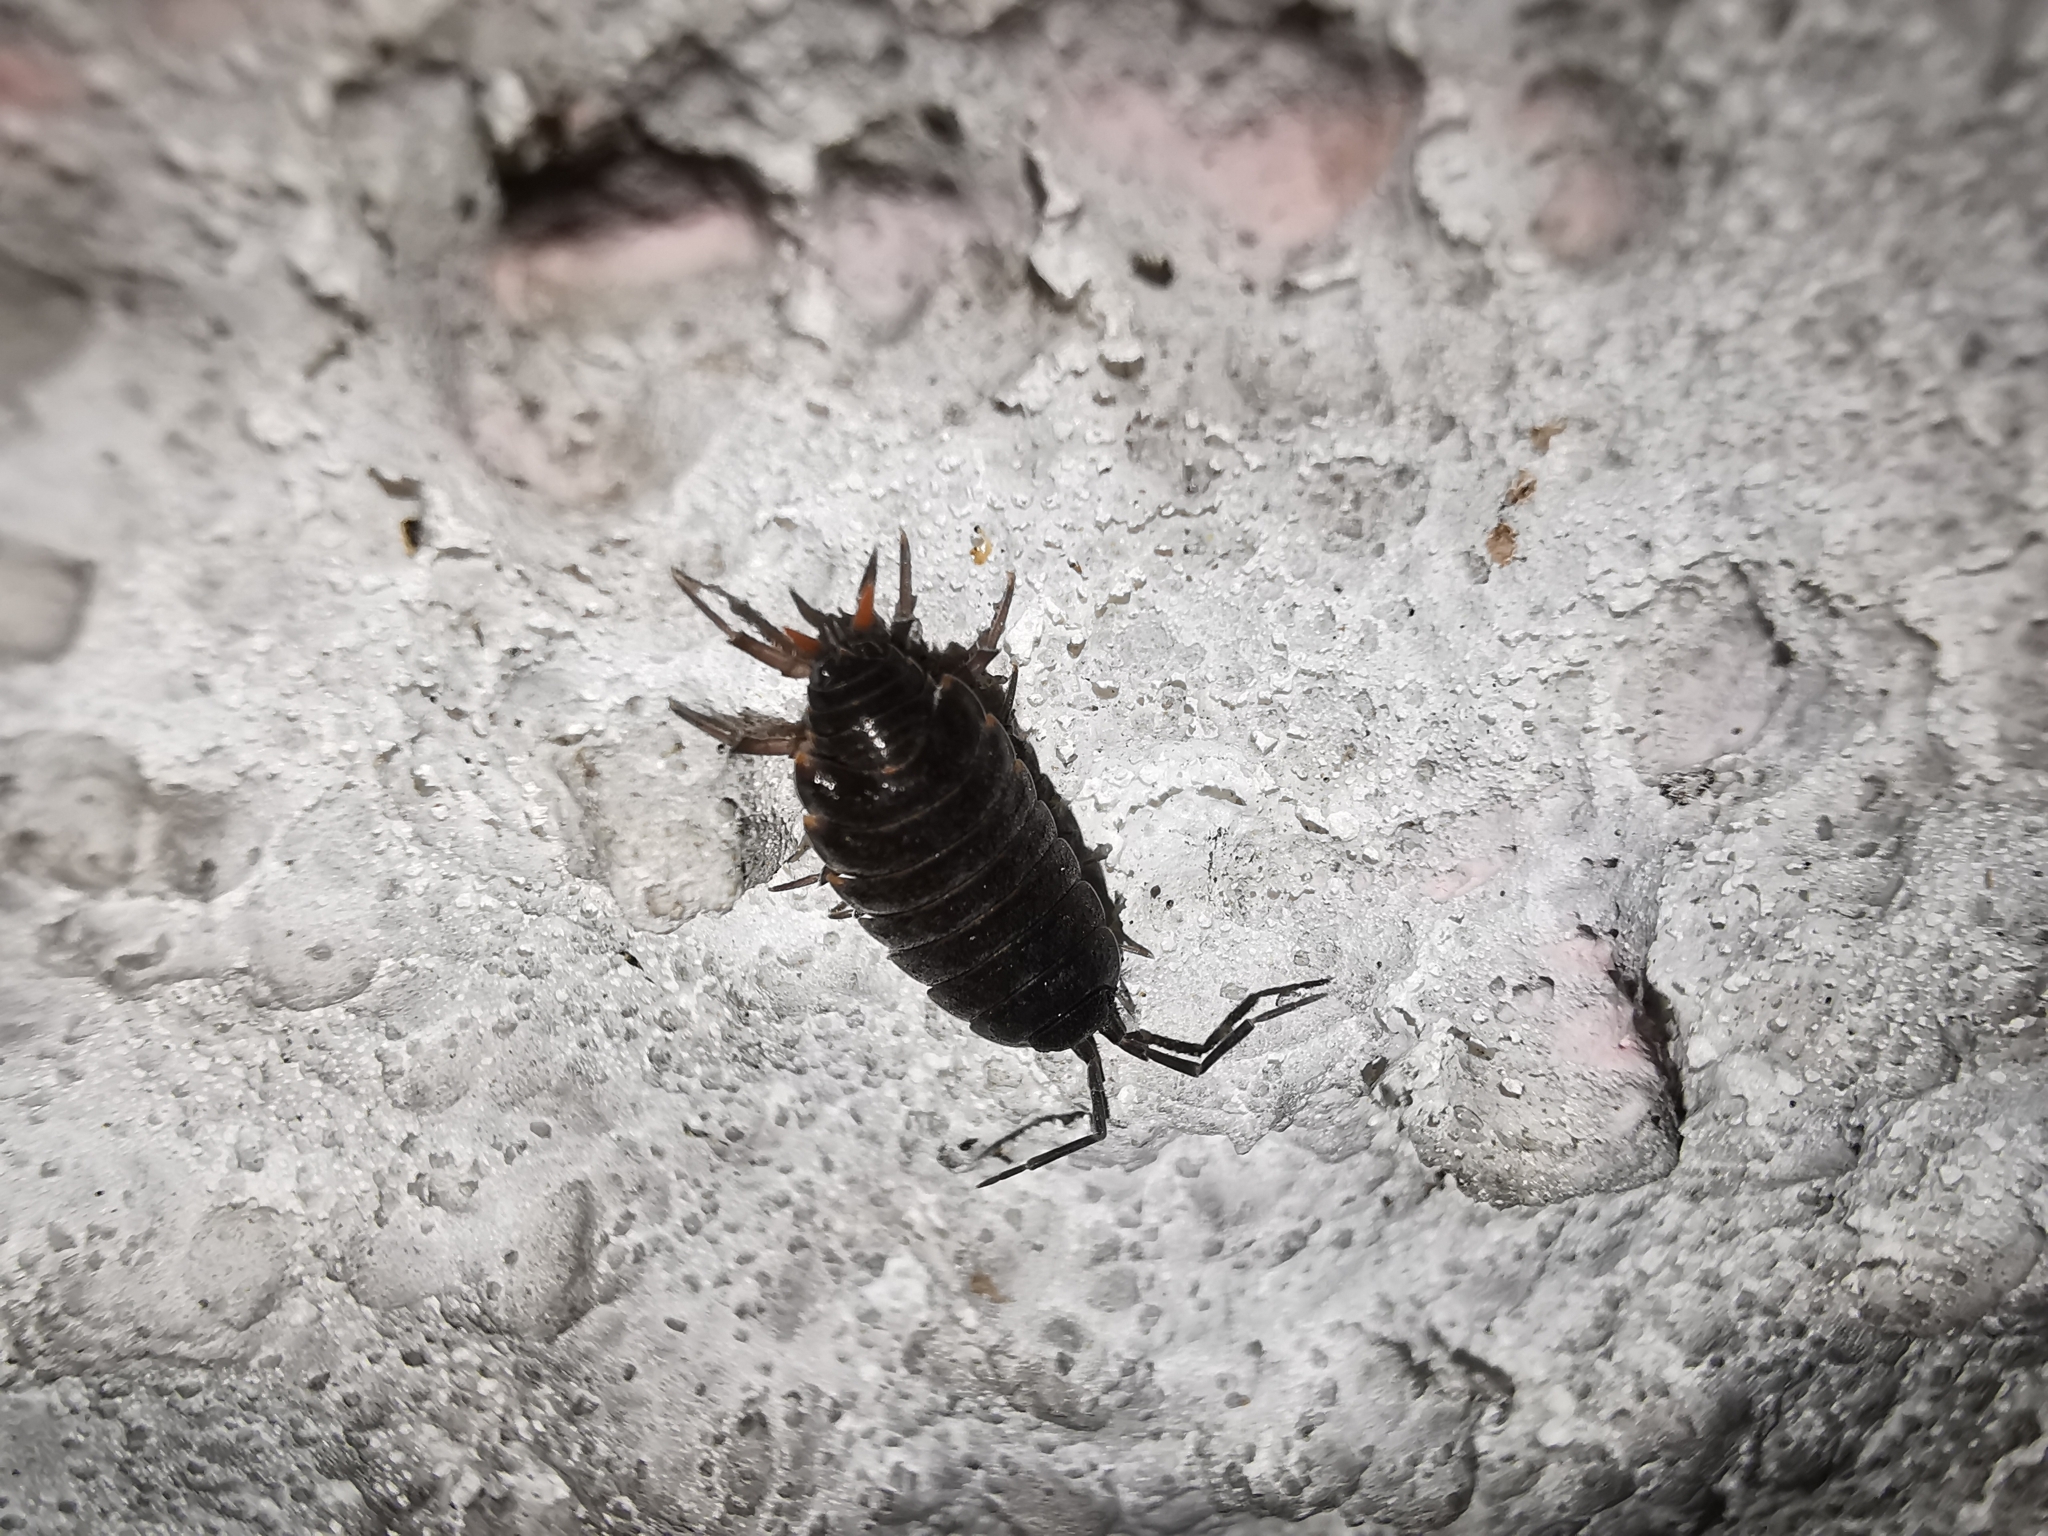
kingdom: Animalia
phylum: Arthropoda
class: Malacostraca
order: Isopoda
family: Porcellionidae
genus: Porcellionides
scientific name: Porcellionides pruinosus
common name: Plum woodlouse
